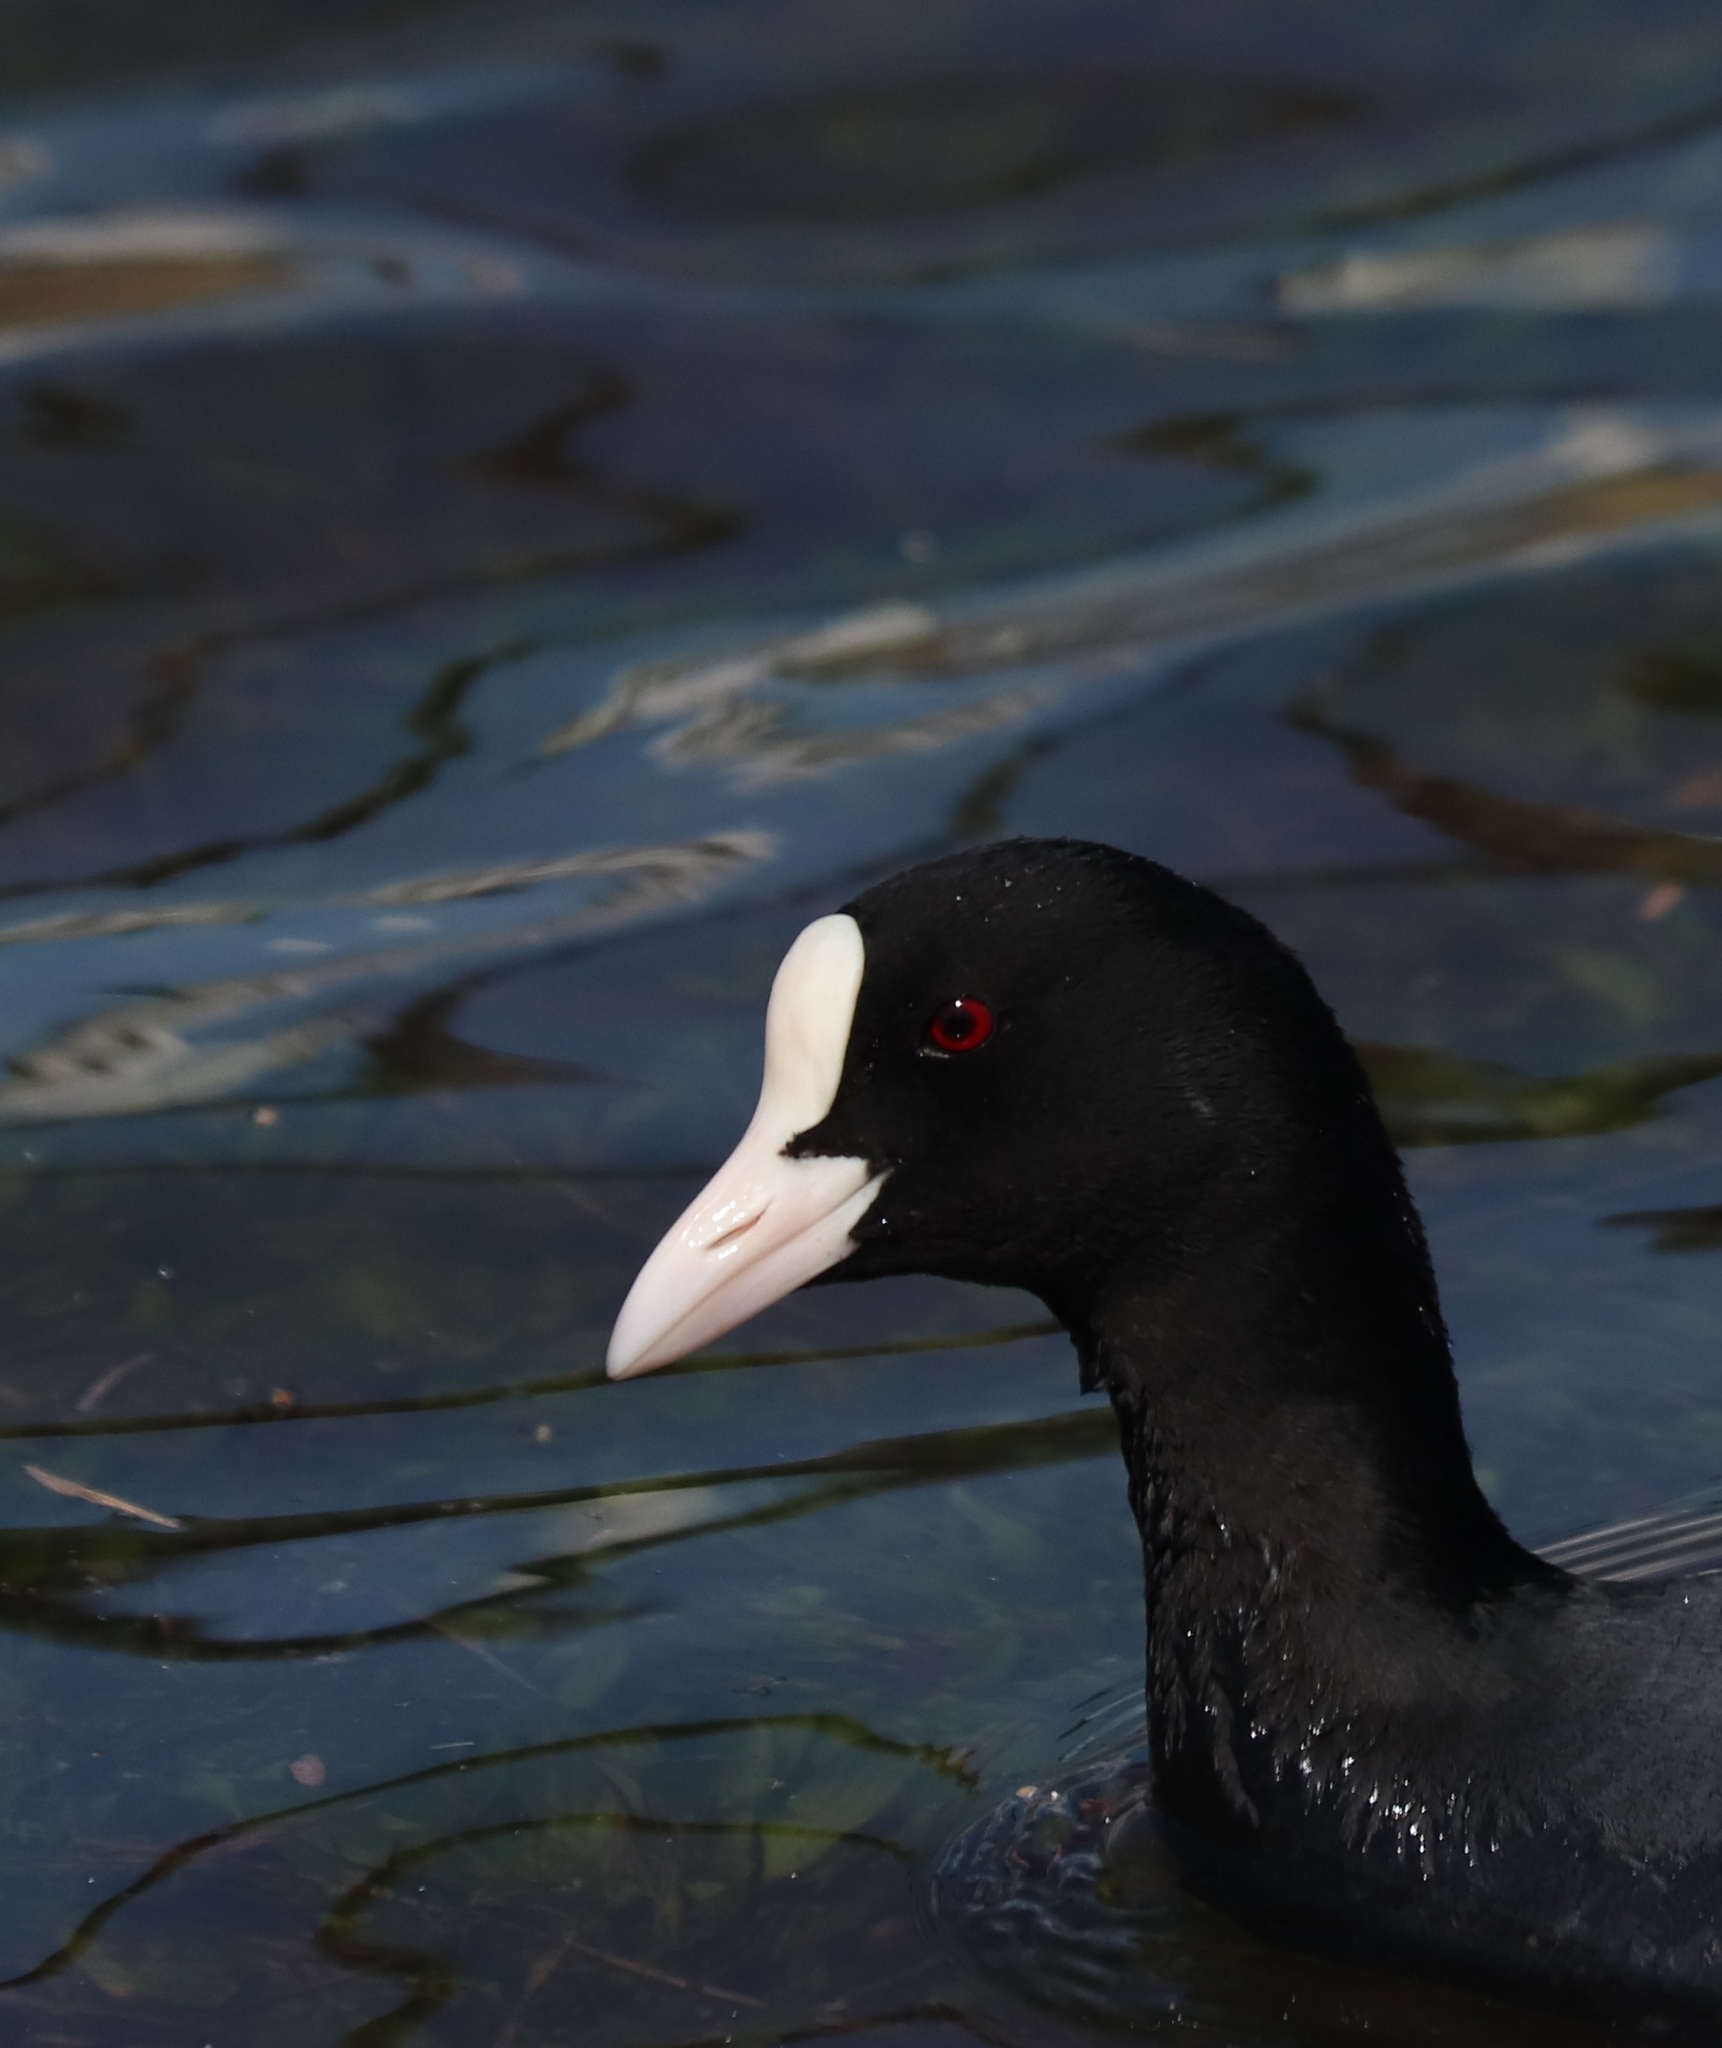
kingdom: Animalia
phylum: Chordata
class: Aves
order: Gruiformes
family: Rallidae
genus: Fulica
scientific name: Fulica atra
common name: Eurasian coot
